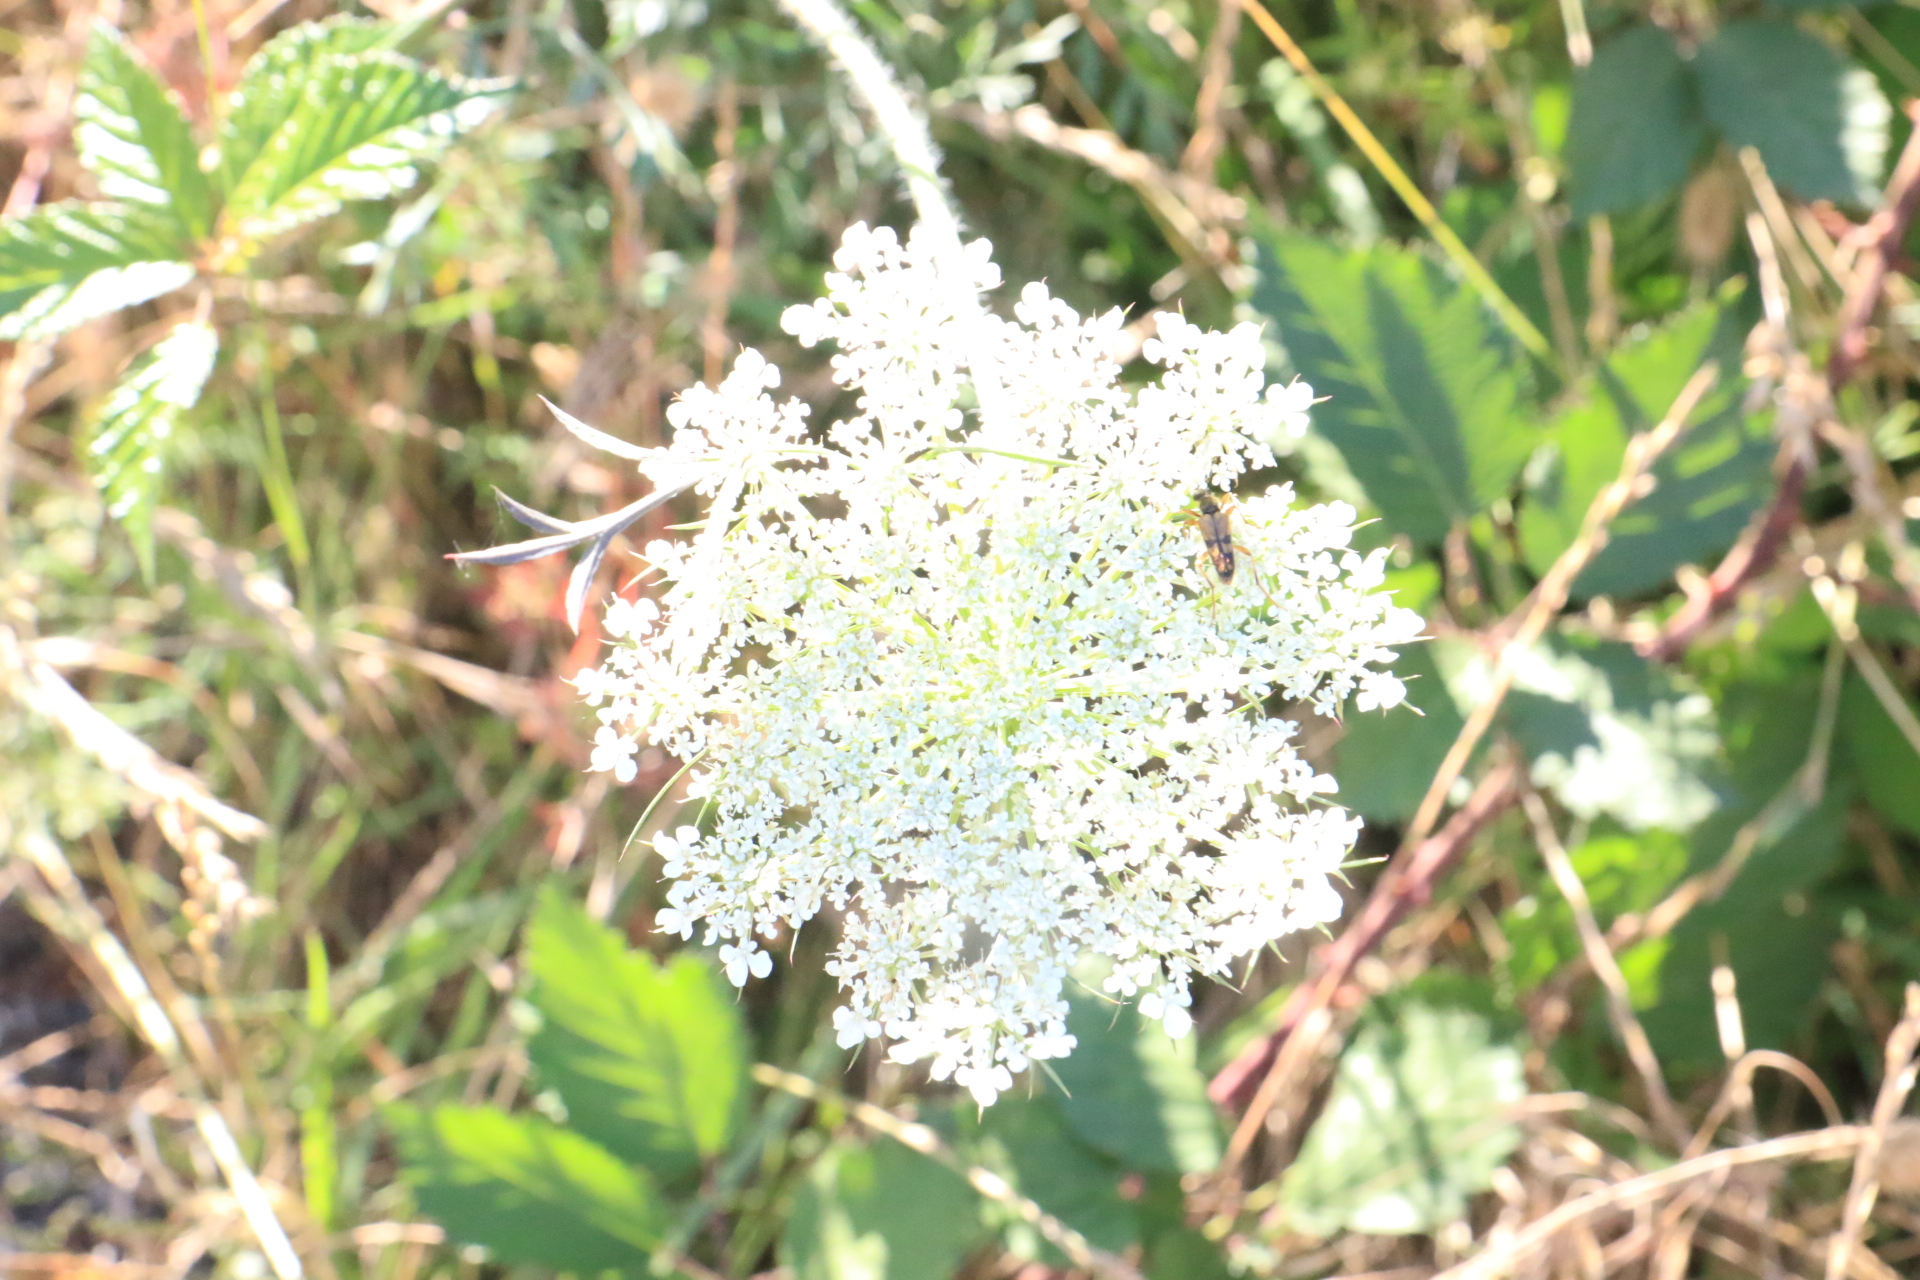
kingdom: Plantae
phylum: Tracheophyta
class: Magnoliopsida
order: Apiales
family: Apiaceae
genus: Daucus
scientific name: Daucus carota
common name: Wild carrot
